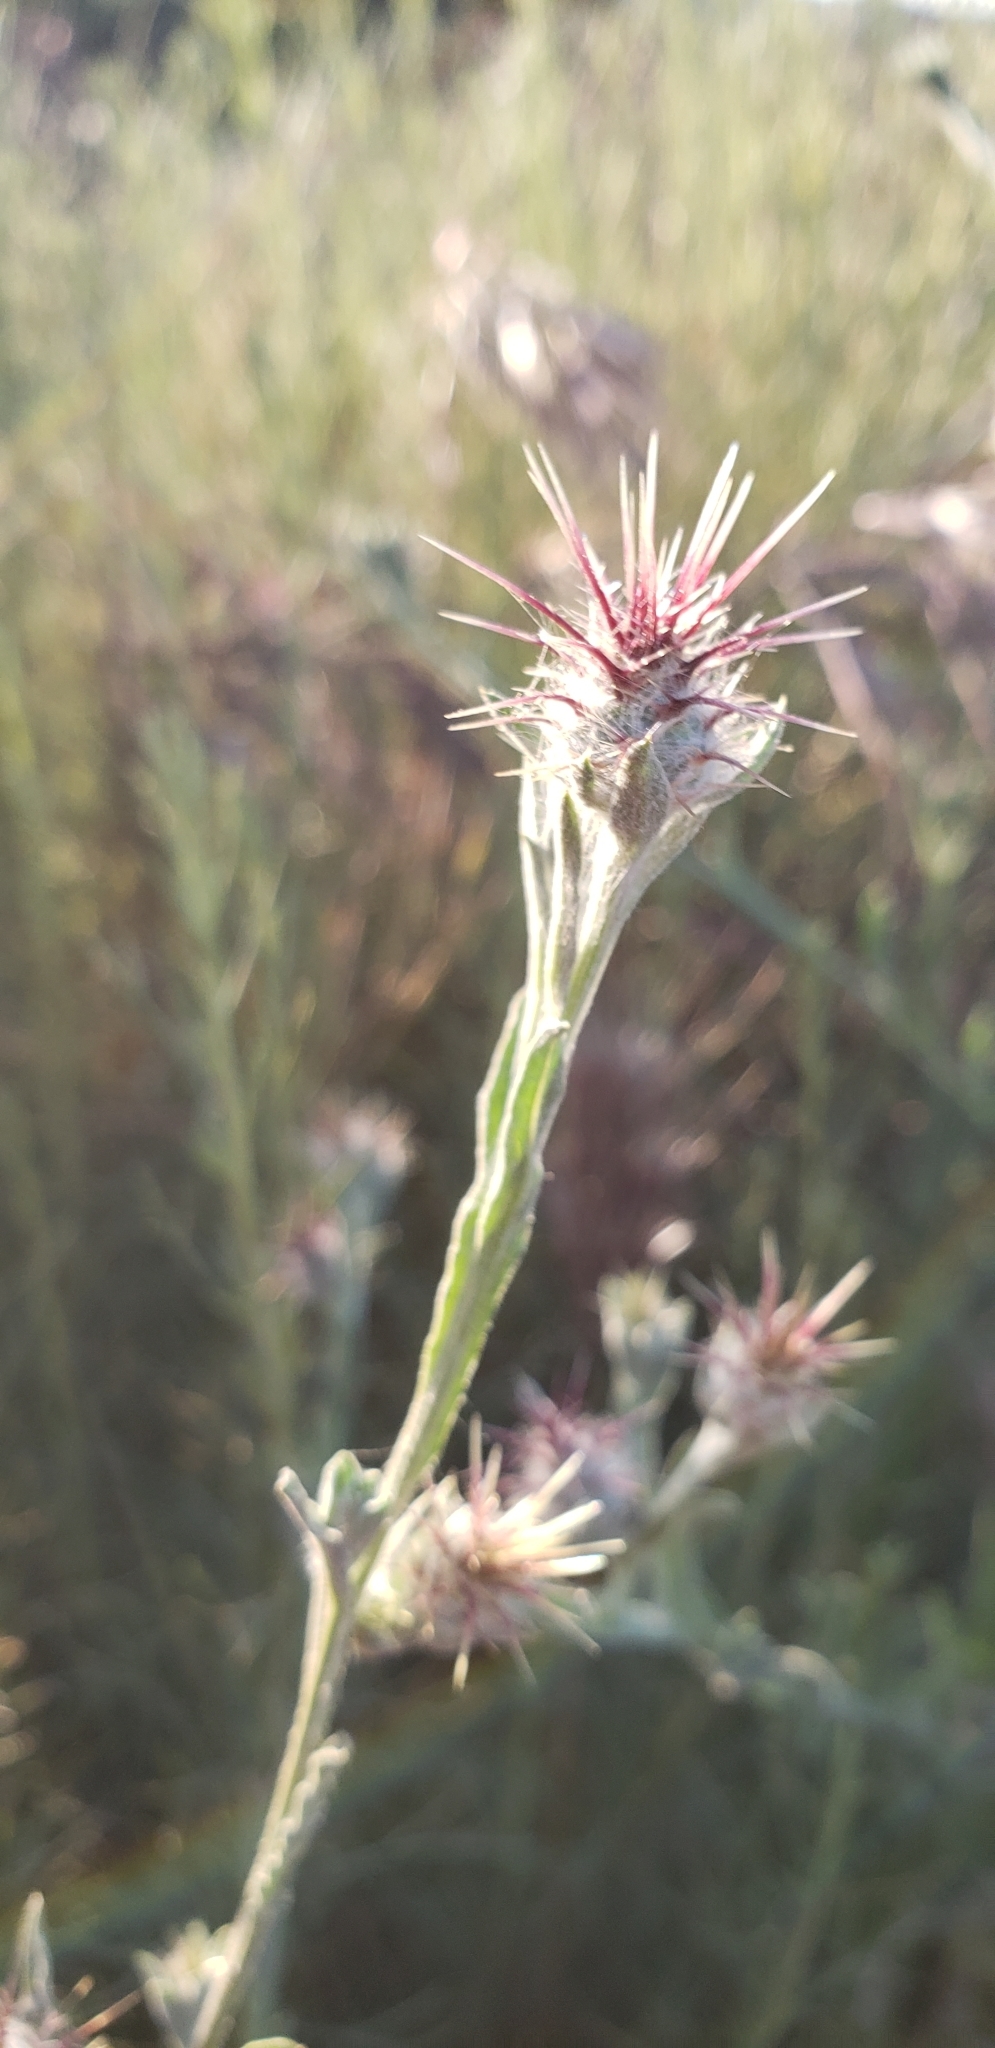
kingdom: Plantae
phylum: Tracheophyta
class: Magnoliopsida
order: Asterales
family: Asteraceae
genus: Centaurea
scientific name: Centaurea melitensis
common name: Maltese star-thistle
